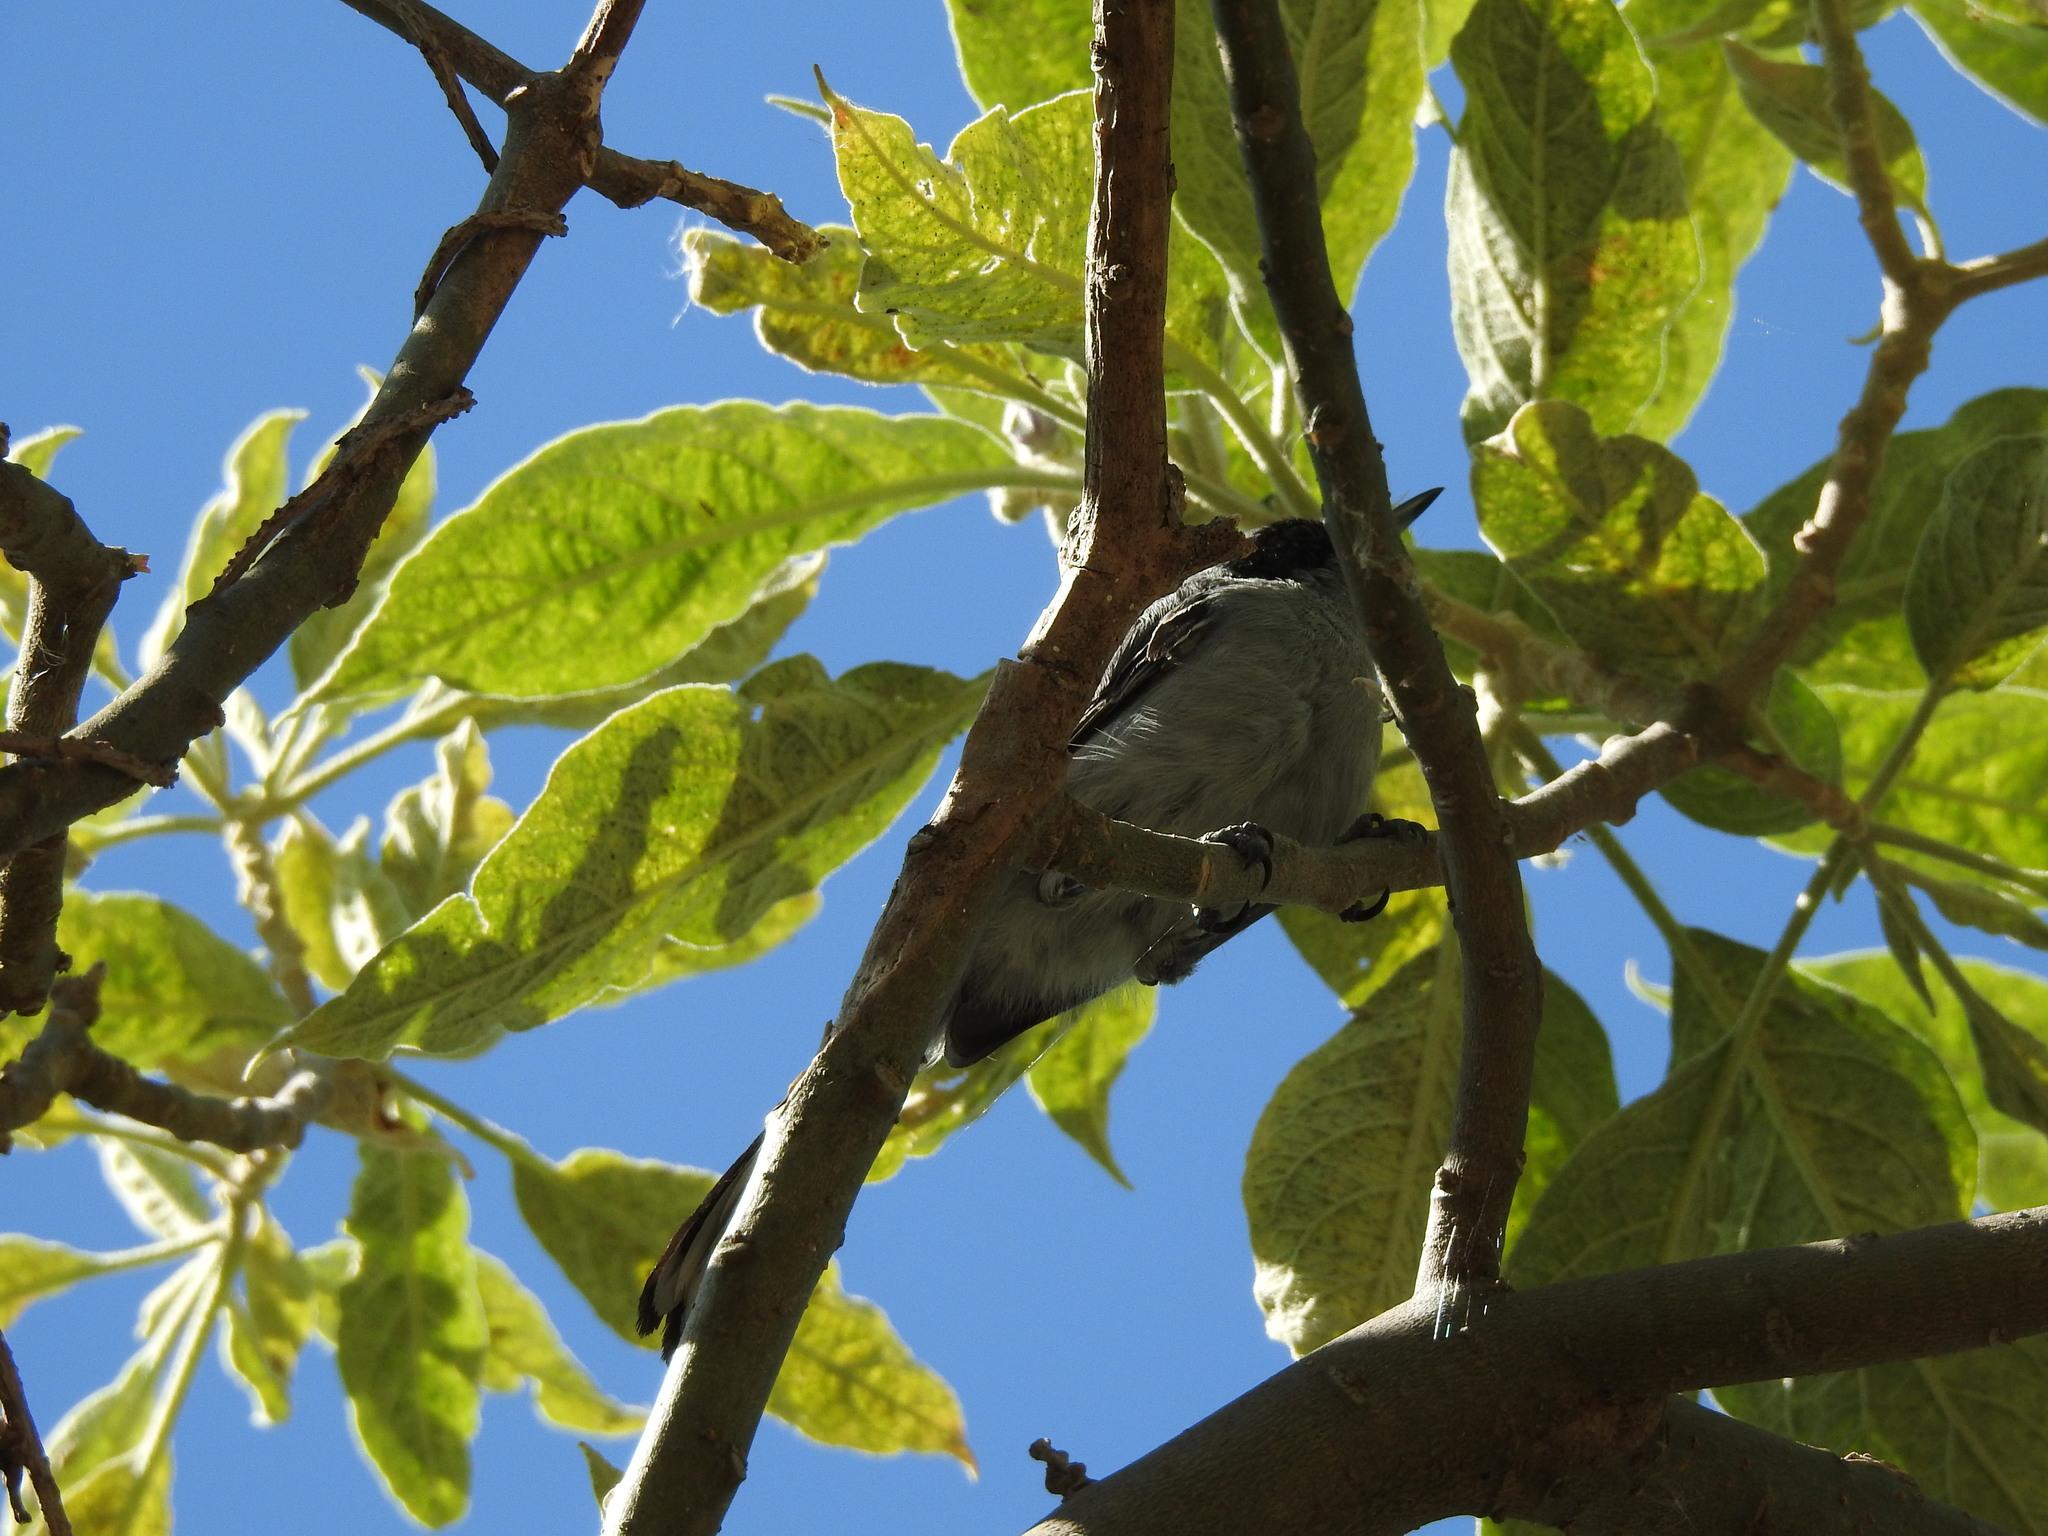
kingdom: Animalia
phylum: Chordata
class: Aves
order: Passeriformes
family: Polioptilidae
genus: Polioptila
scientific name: Polioptila dumicola
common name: Masked gnatcatcher
